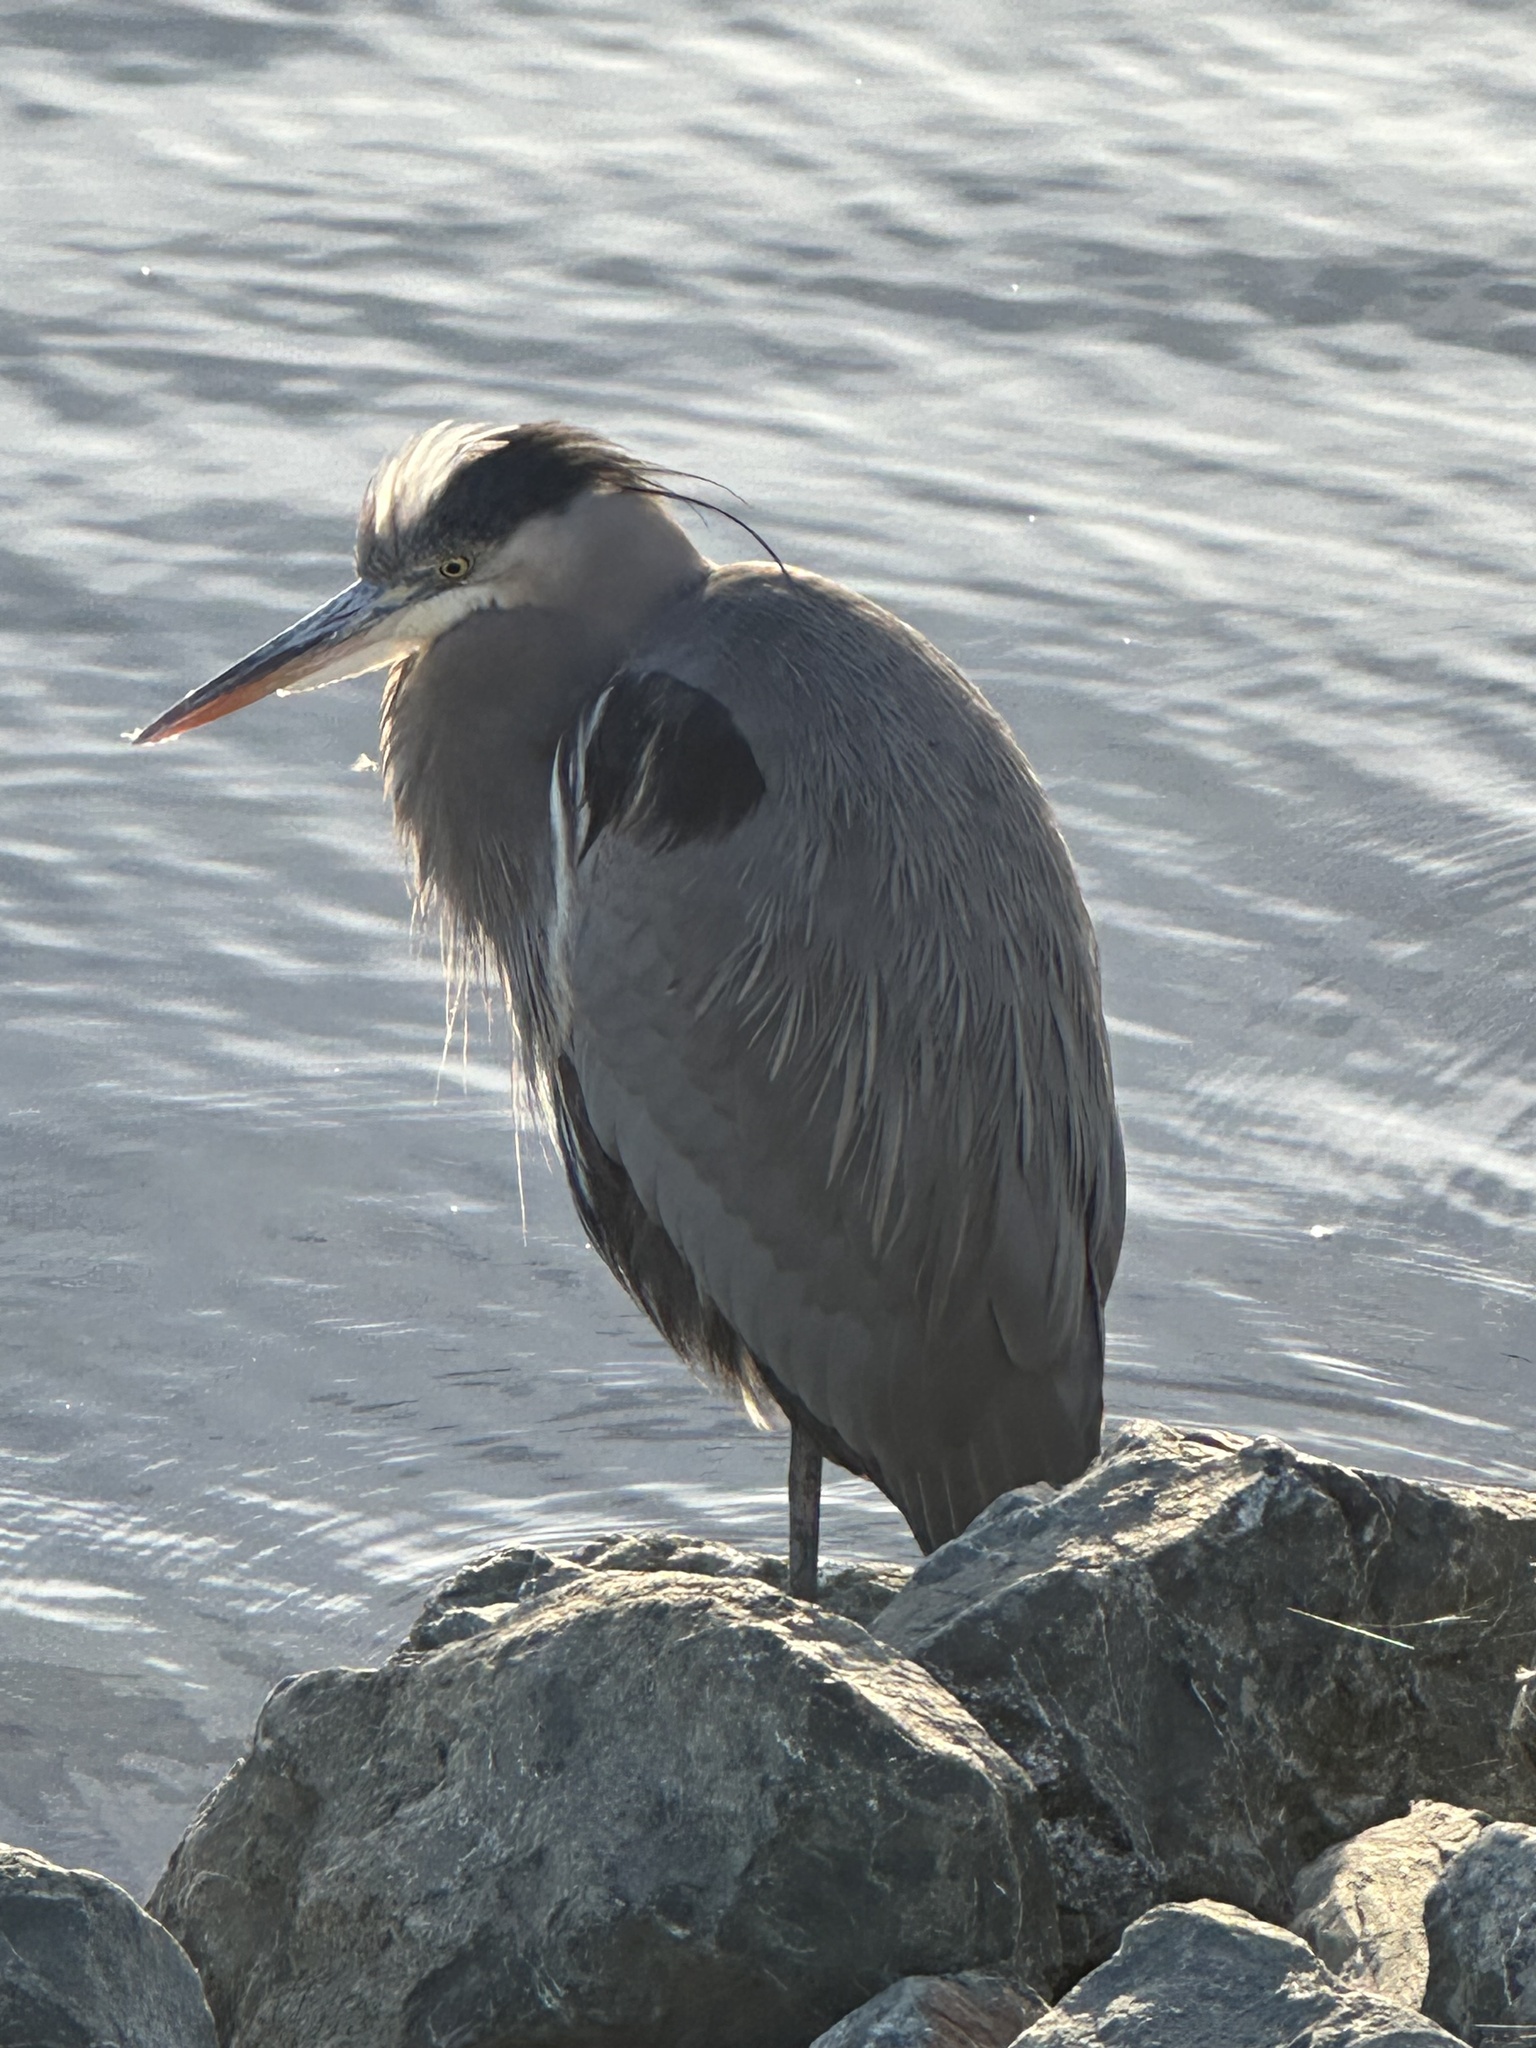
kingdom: Animalia
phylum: Chordata
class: Aves
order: Pelecaniformes
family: Ardeidae
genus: Ardea
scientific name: Ardea herodias
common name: Great blue heron
